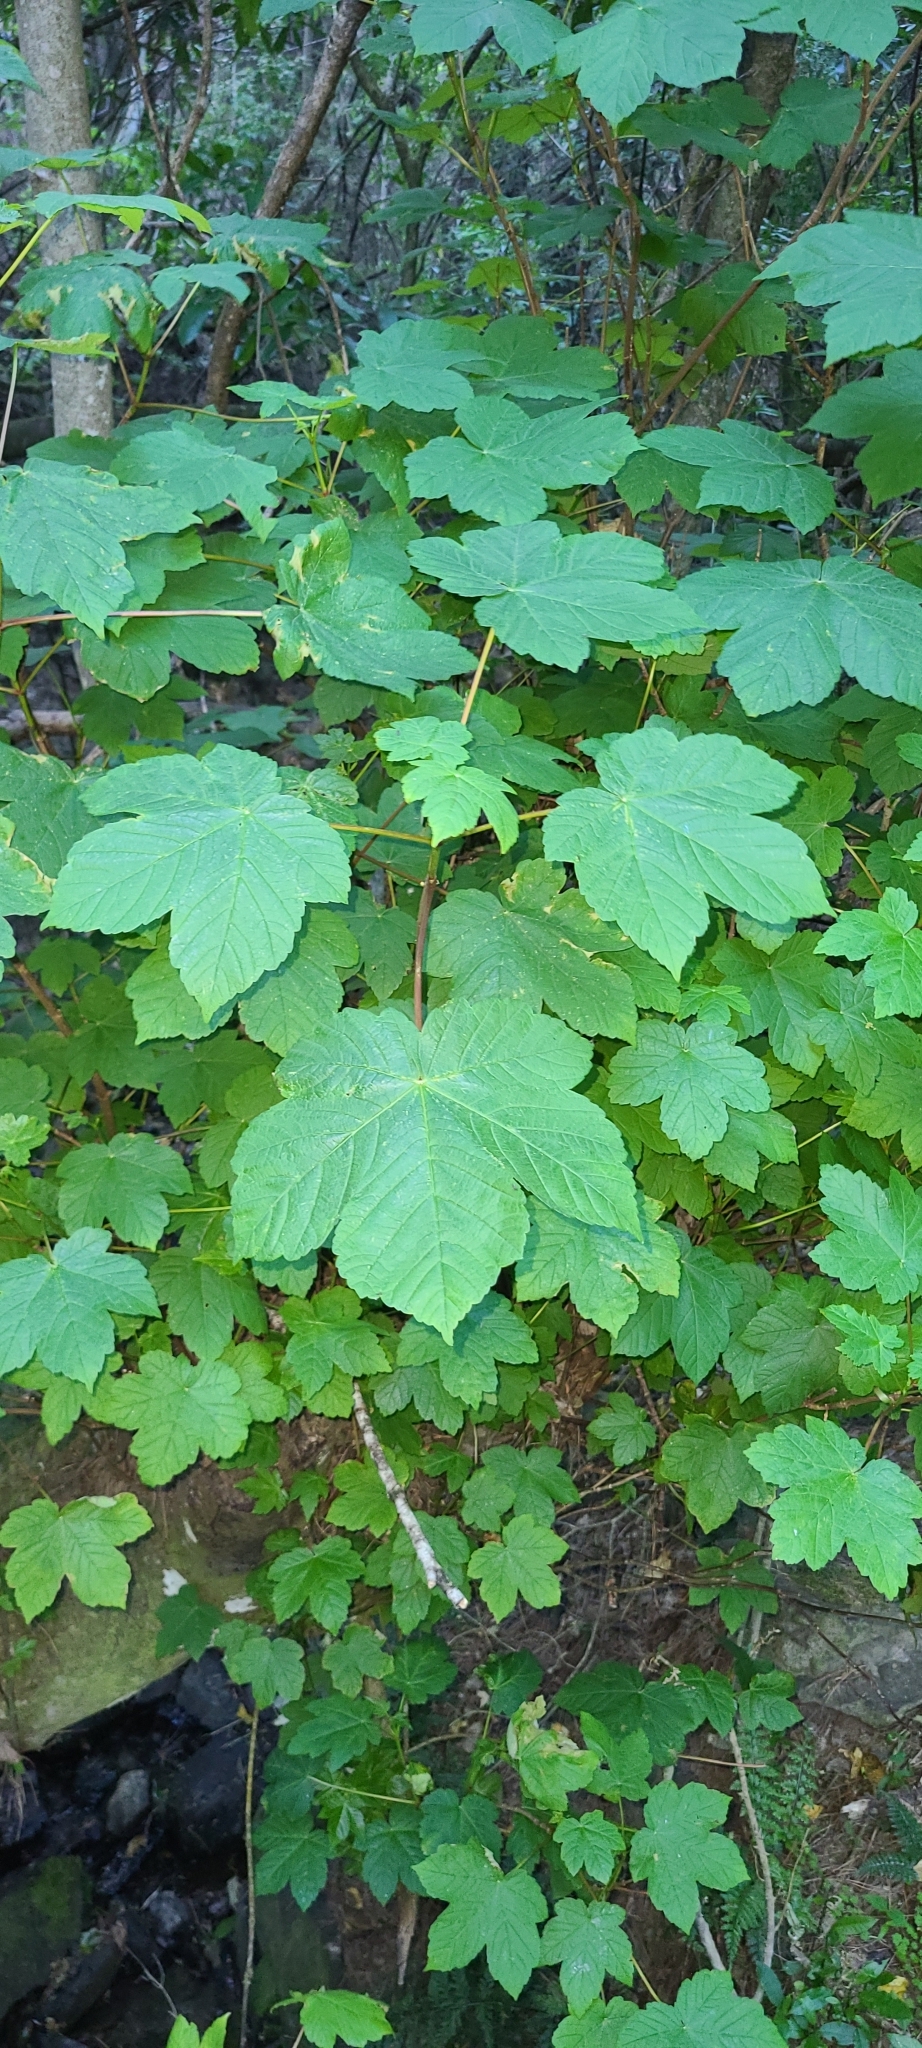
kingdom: Plantae
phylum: Tracheophyta
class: Magnoliopsida
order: Sapindales
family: Sapindaceae
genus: Acer
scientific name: Acer pseudoplatanus
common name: Sycamore
